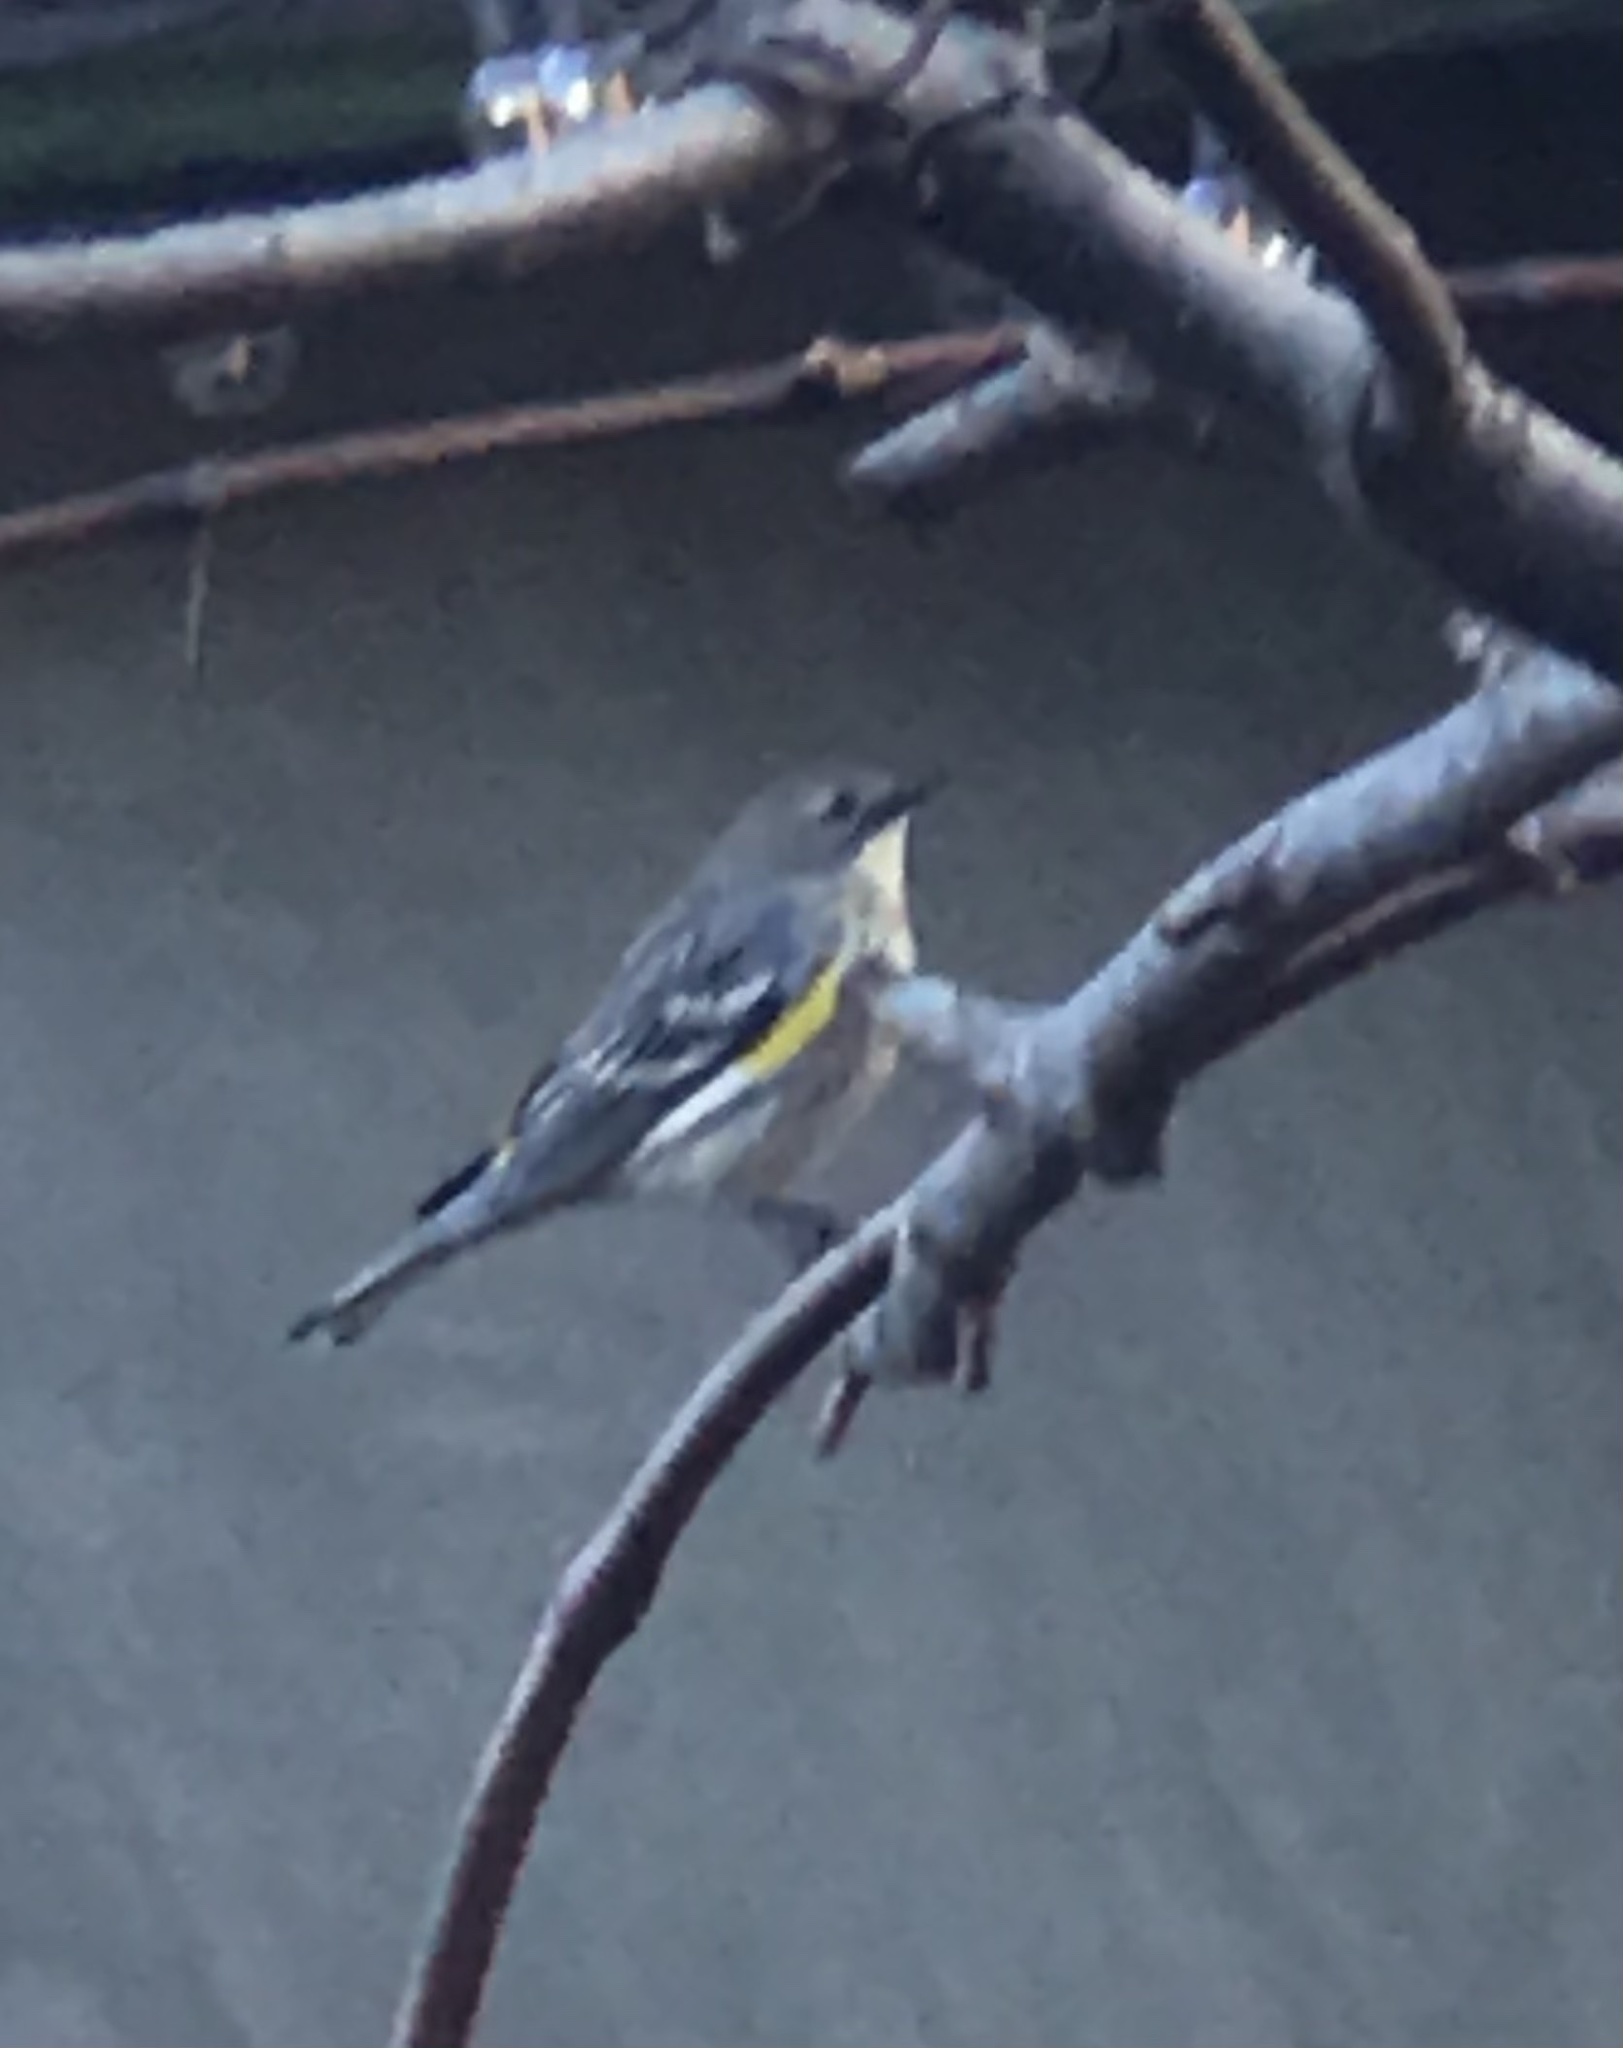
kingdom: Animalia
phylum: Chordata
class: Aves
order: Passeriformes
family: Parulidae
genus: Setophaga
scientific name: Setophaga auduboni
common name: Audubon's warbler
